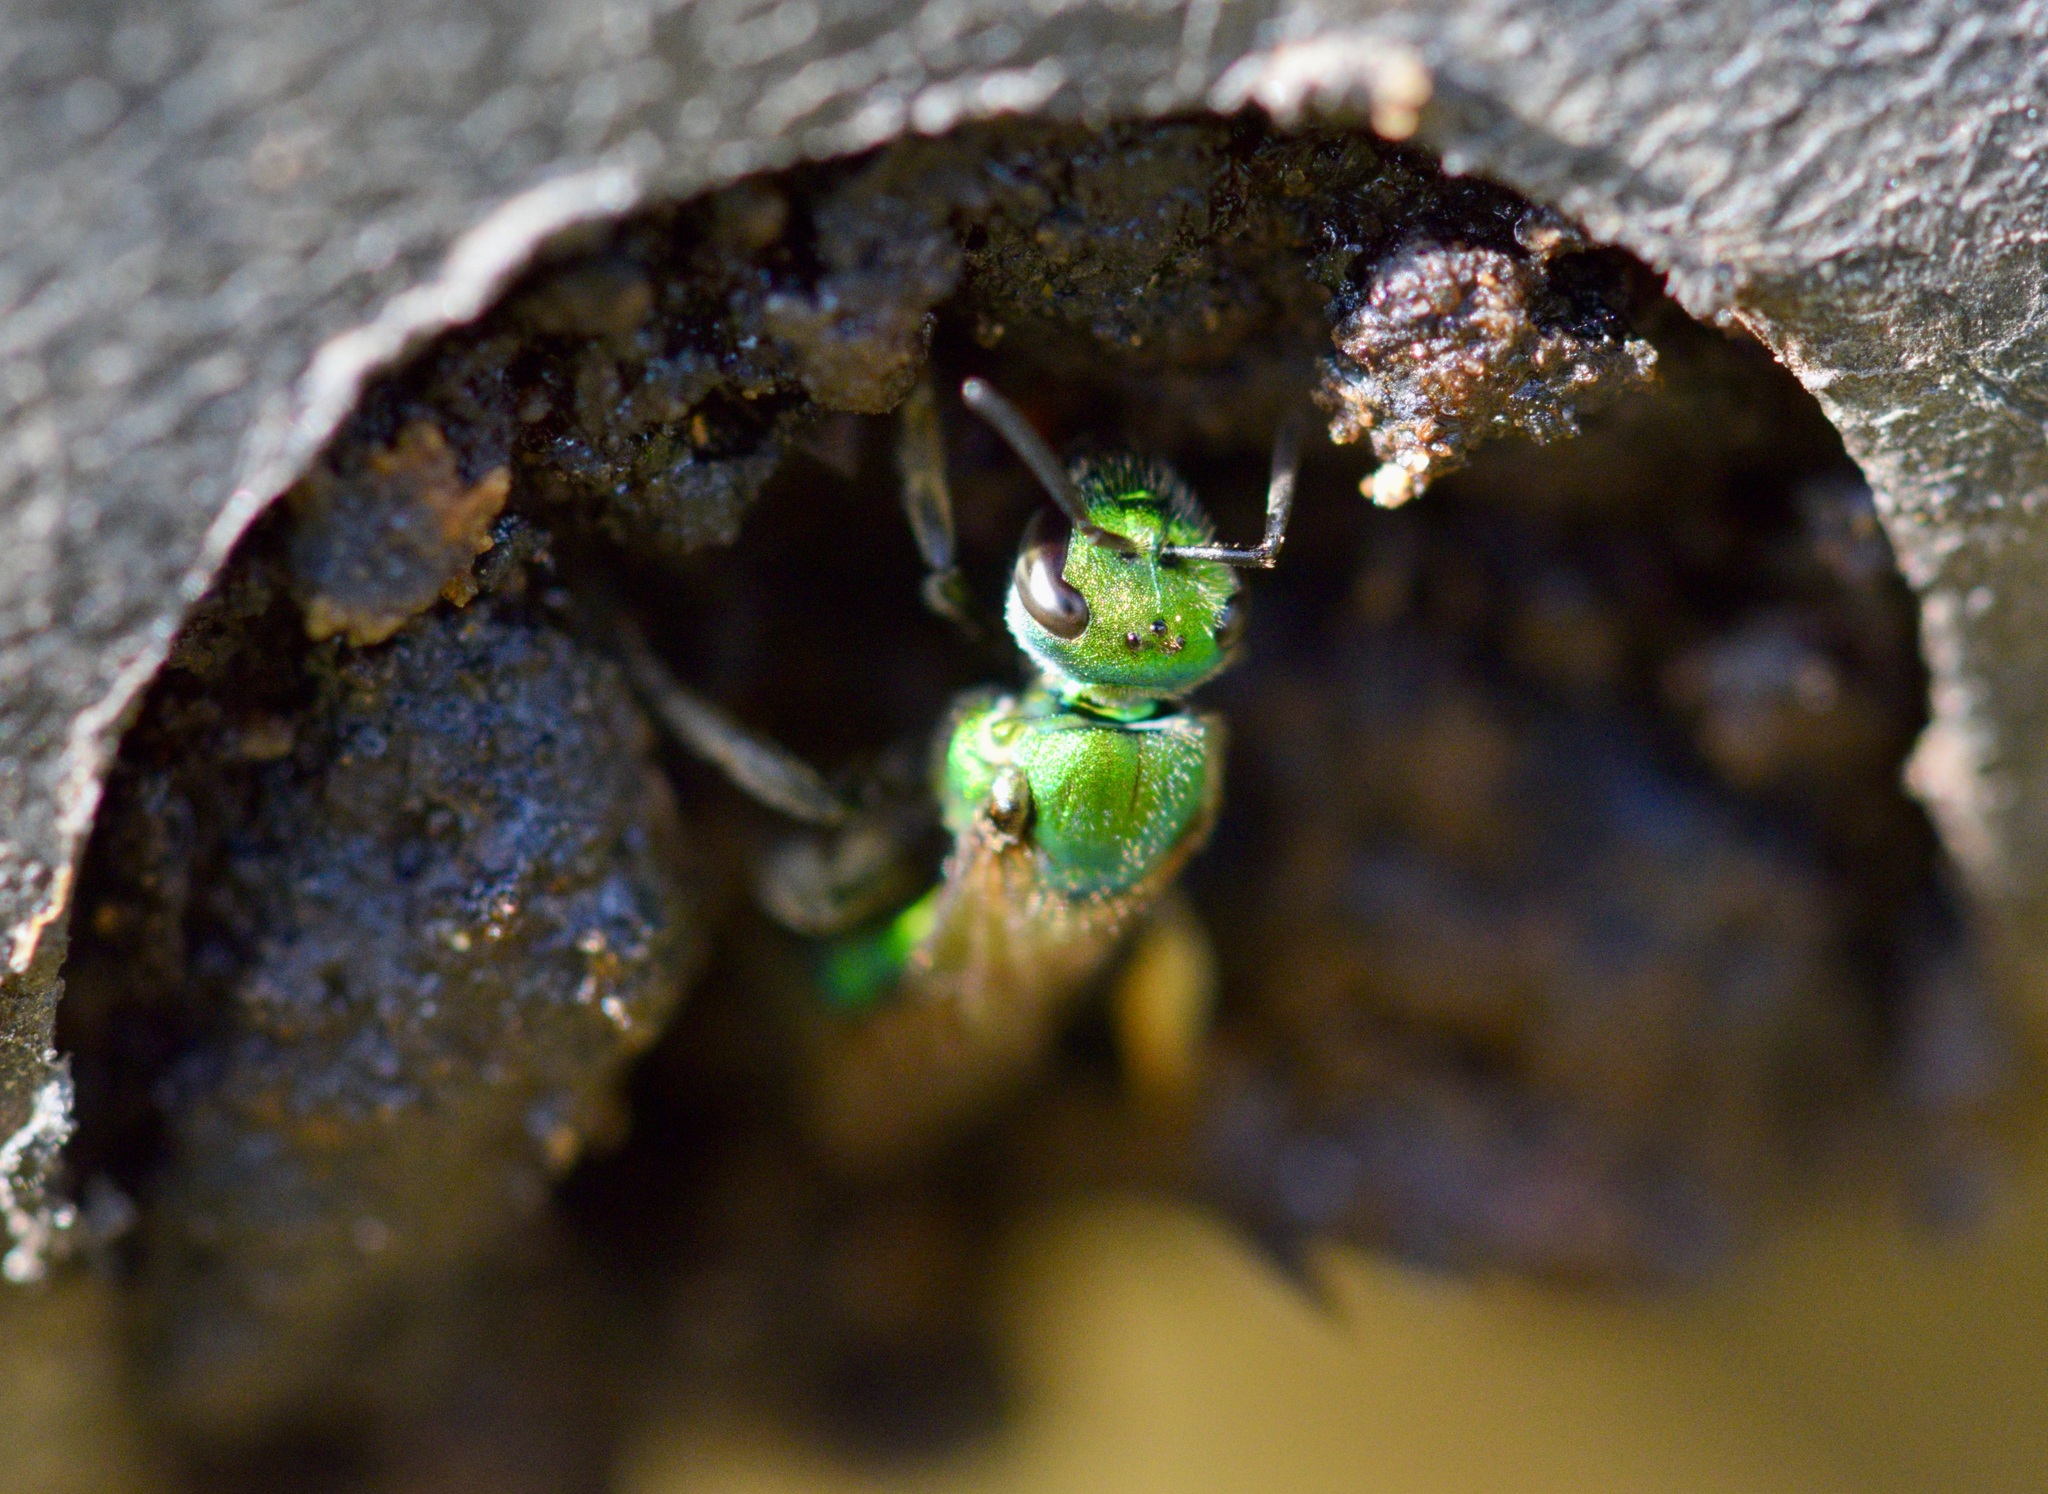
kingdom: Animalia
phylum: Arthropoda
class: Insecta
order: Hymenoptera
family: Halictidae
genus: Augochlora
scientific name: Augochlora pura
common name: Pure green sweat bee
